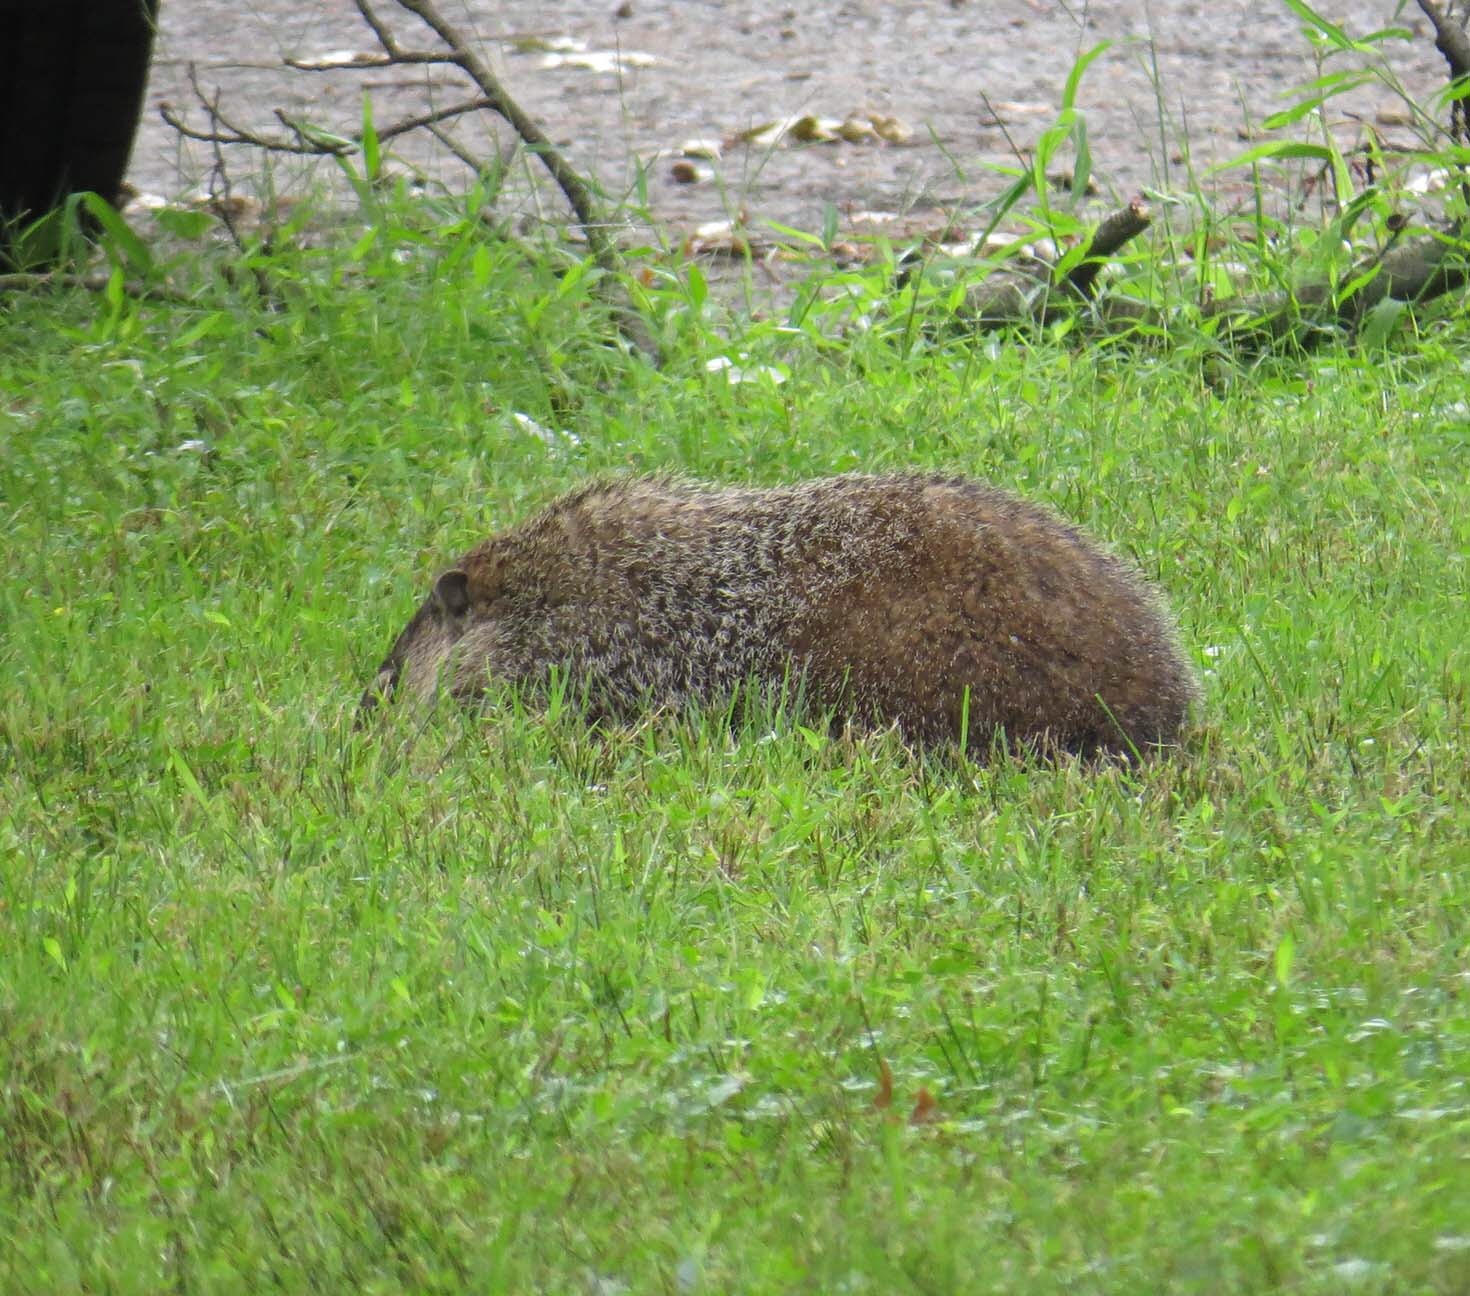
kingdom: Animalia
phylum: Chordata
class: Mammalia
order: Rodentia
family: Sciuridae
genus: Marmota
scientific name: Marmota monax
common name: Groundhog
